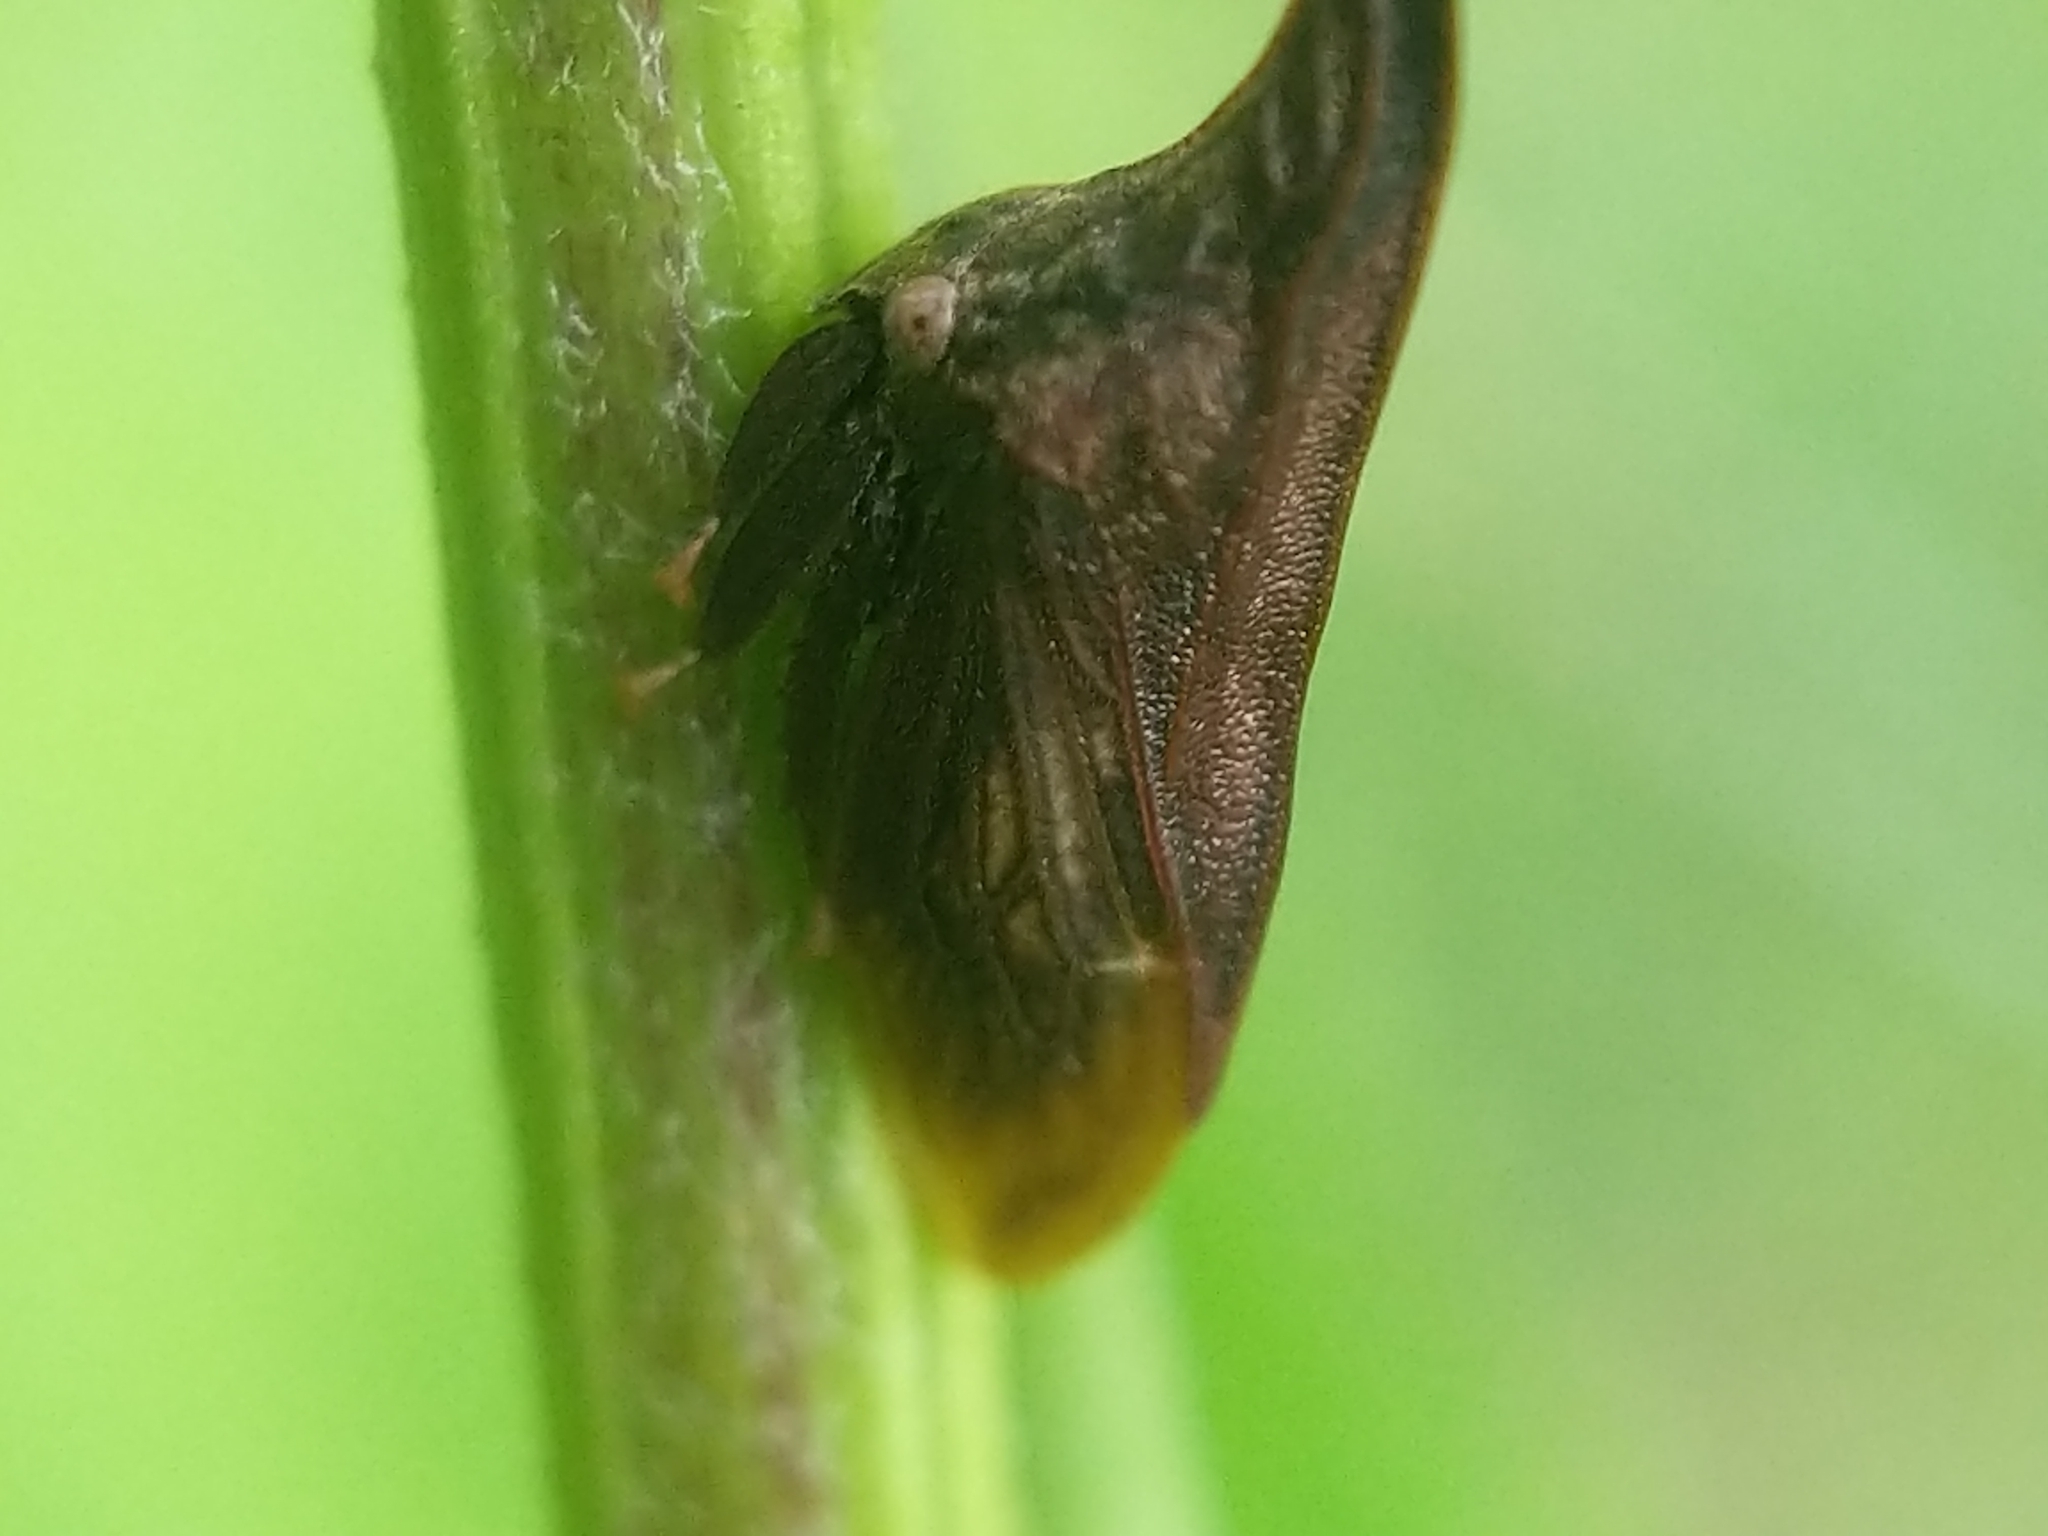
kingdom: Animalia
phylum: Arthropoda
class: Insecta
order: Hemiptera
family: Membracidae
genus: Enchenopa
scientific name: Enchenopa latipes
